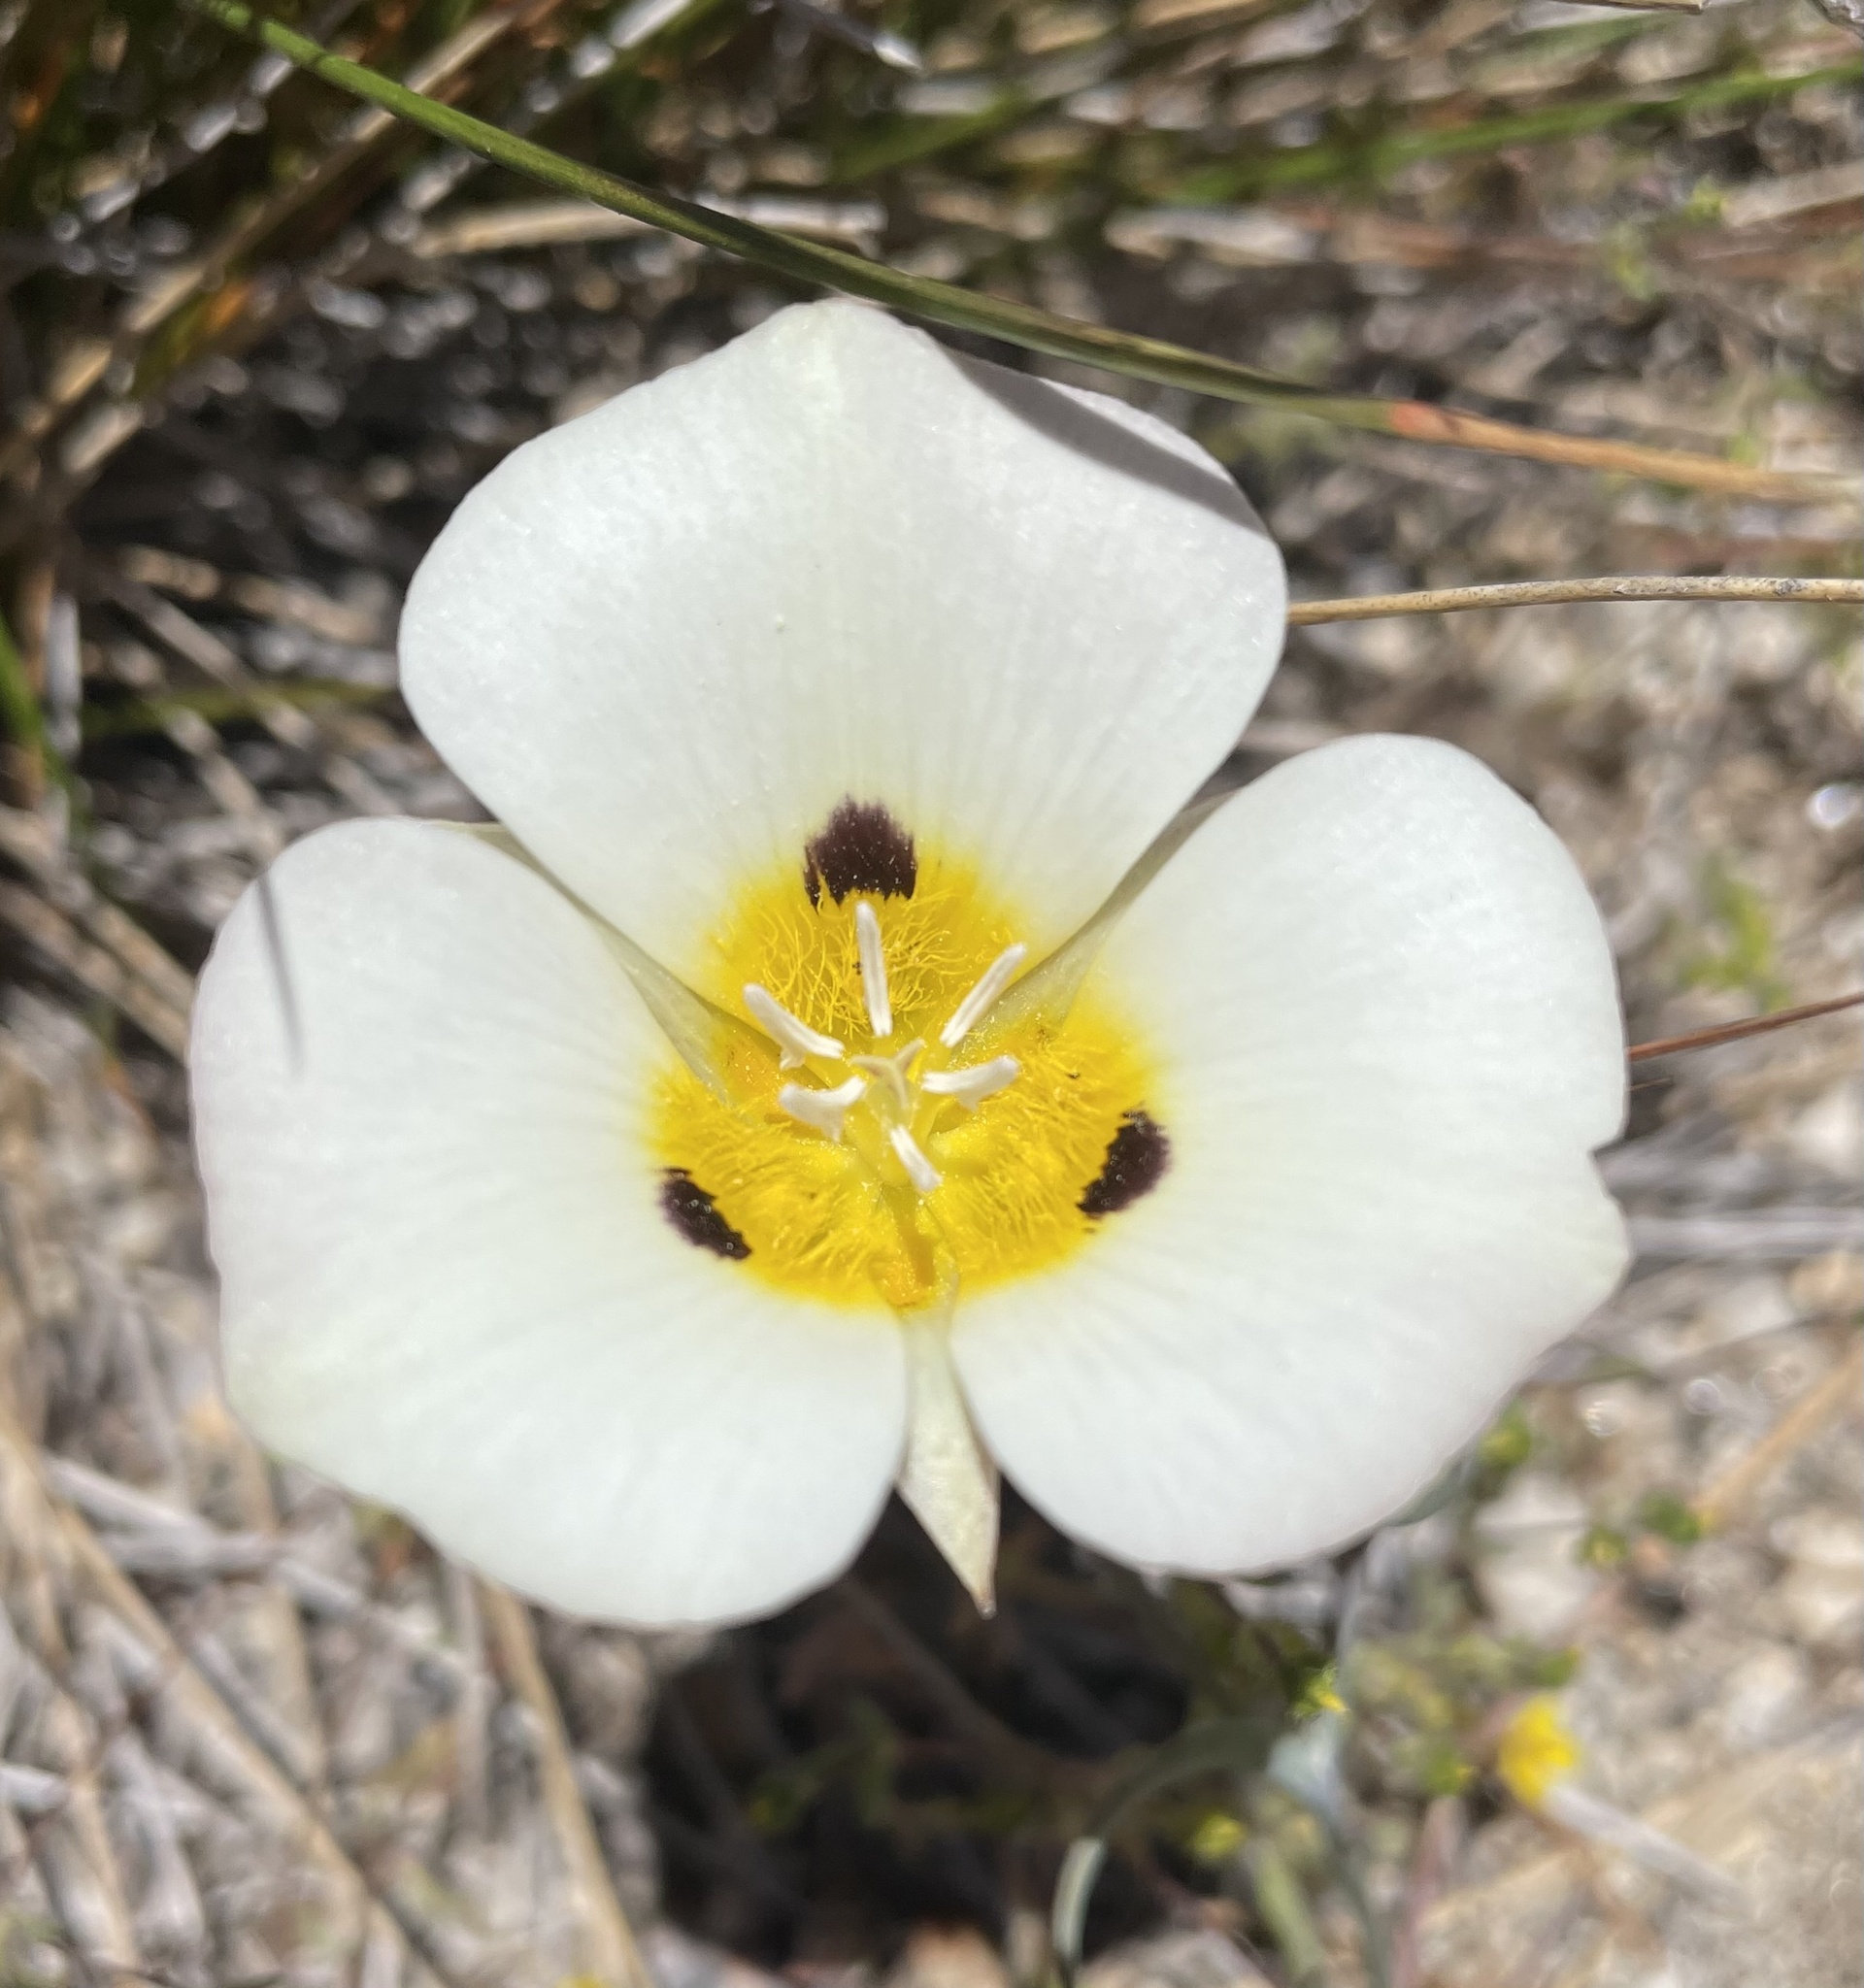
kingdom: Plantae
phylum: Tracheophyta
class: Liliopsida
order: Liliales
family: Liliaceae
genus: Calochortus
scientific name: Calochortus leichtlinii
